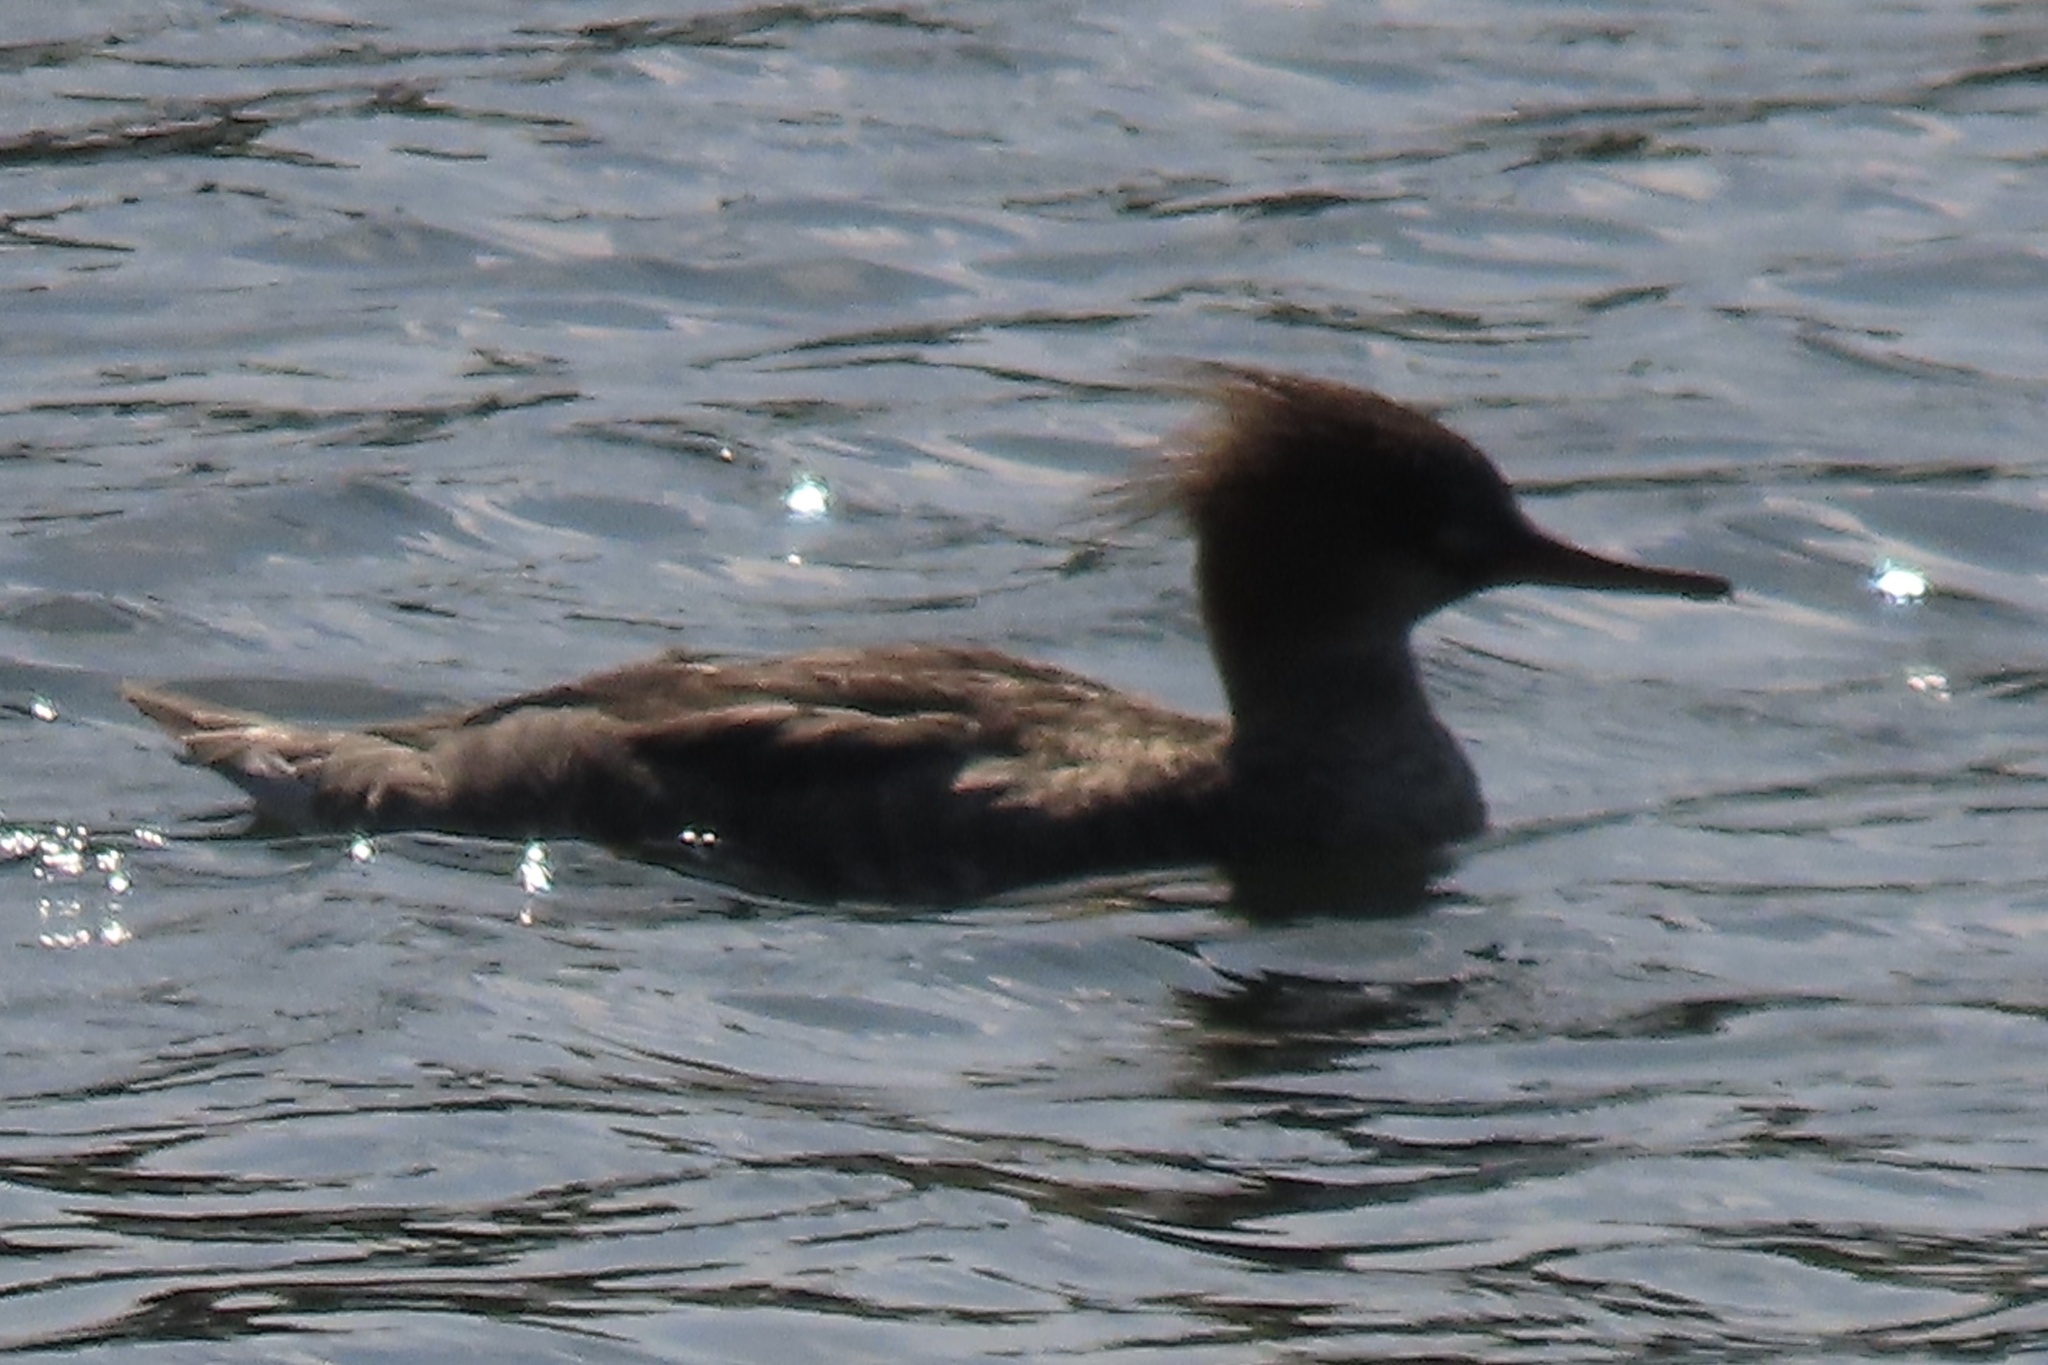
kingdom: Animalia
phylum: Chordata
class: Aves
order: Anseriformes
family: Anatidae
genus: Mergus
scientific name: Mergus serrator
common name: Red-breasted merganser
